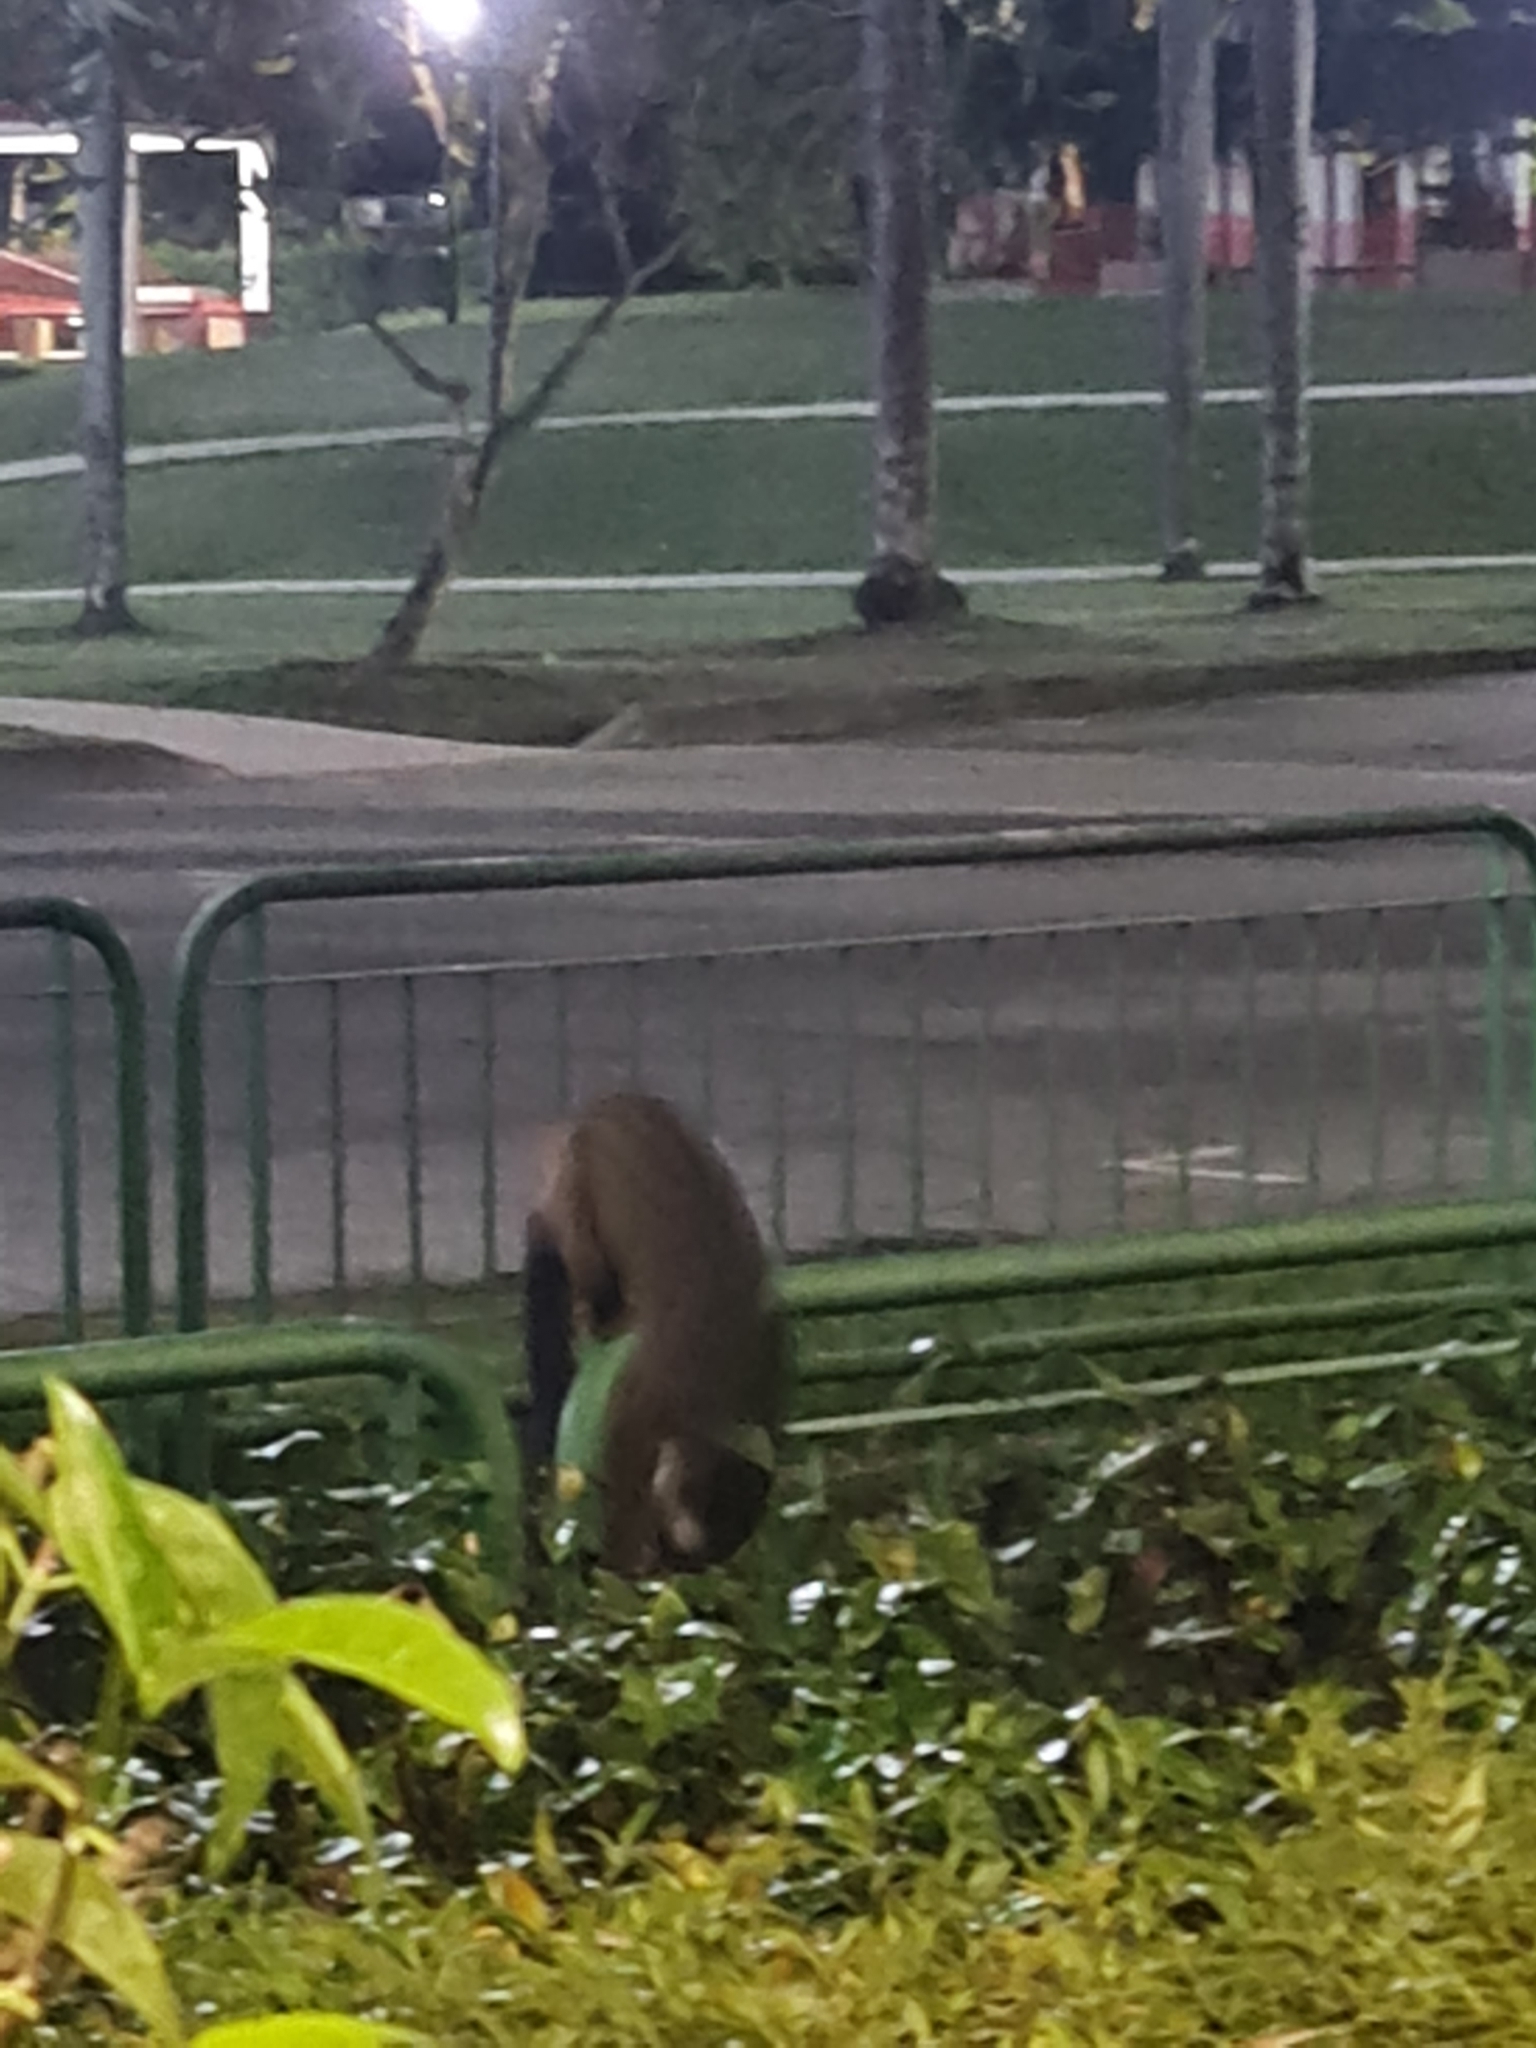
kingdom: Animalia
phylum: Chordata
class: Mammalia
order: Carnivora
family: Viverridae
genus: Paradoxurus
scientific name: Paradoxurus hermaphroditus
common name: Common palm civet
